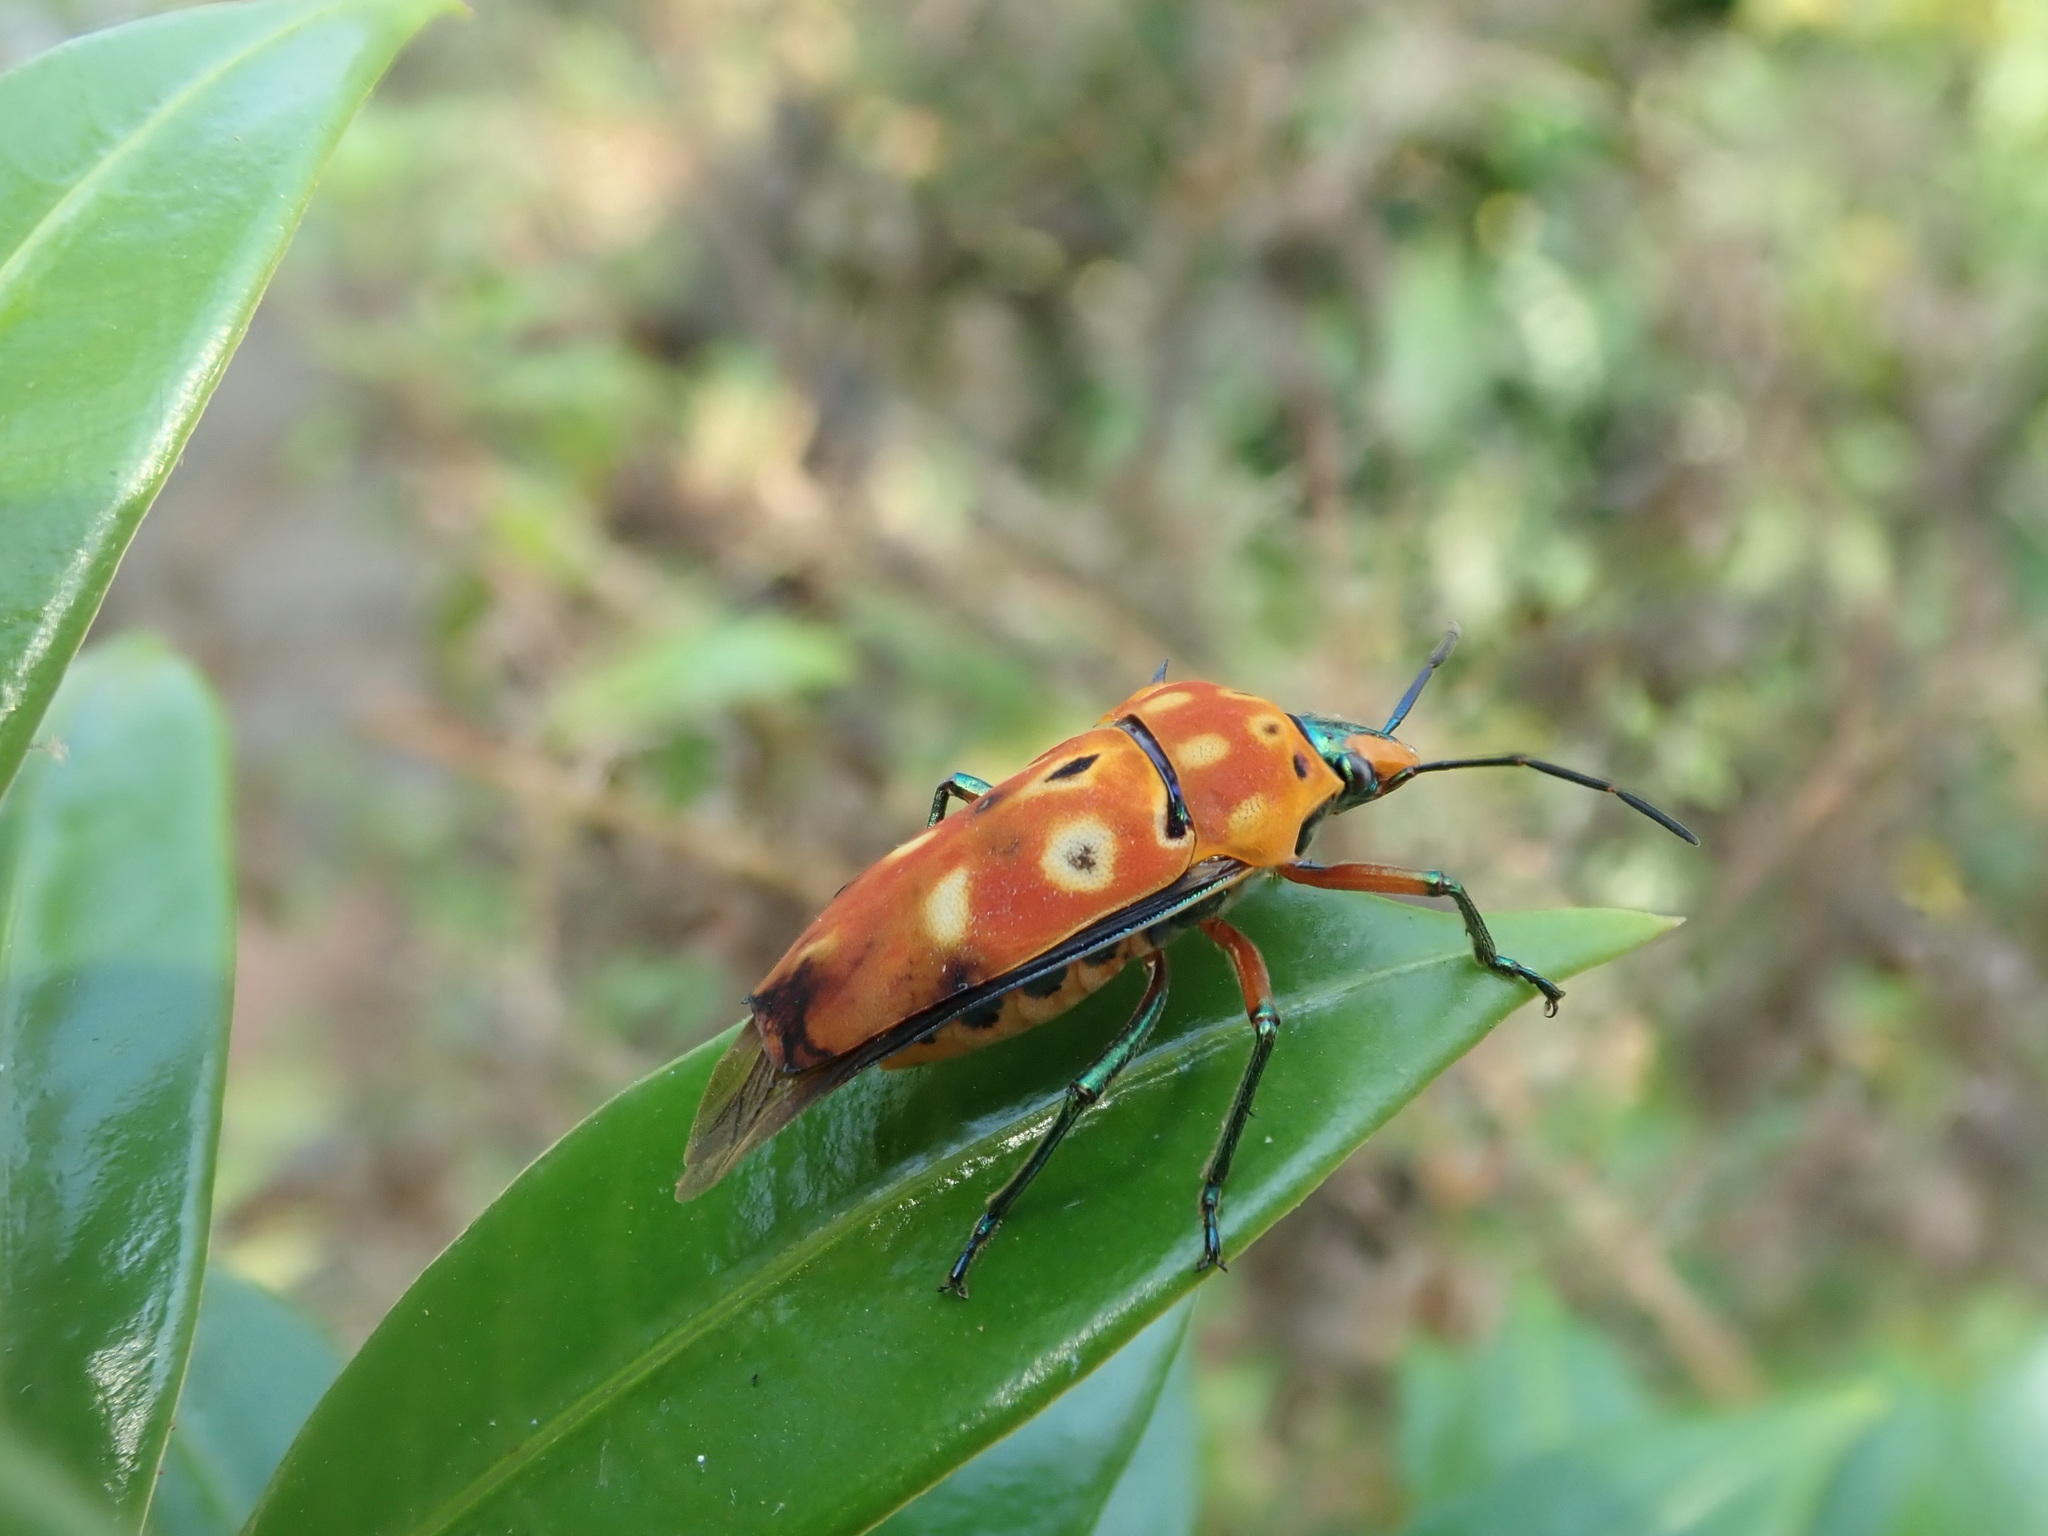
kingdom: Animalia
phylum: Arthropoda
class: Insecta
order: Hemiptera
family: Scutelleridae
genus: Cantao
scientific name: Cantao ocellatus
